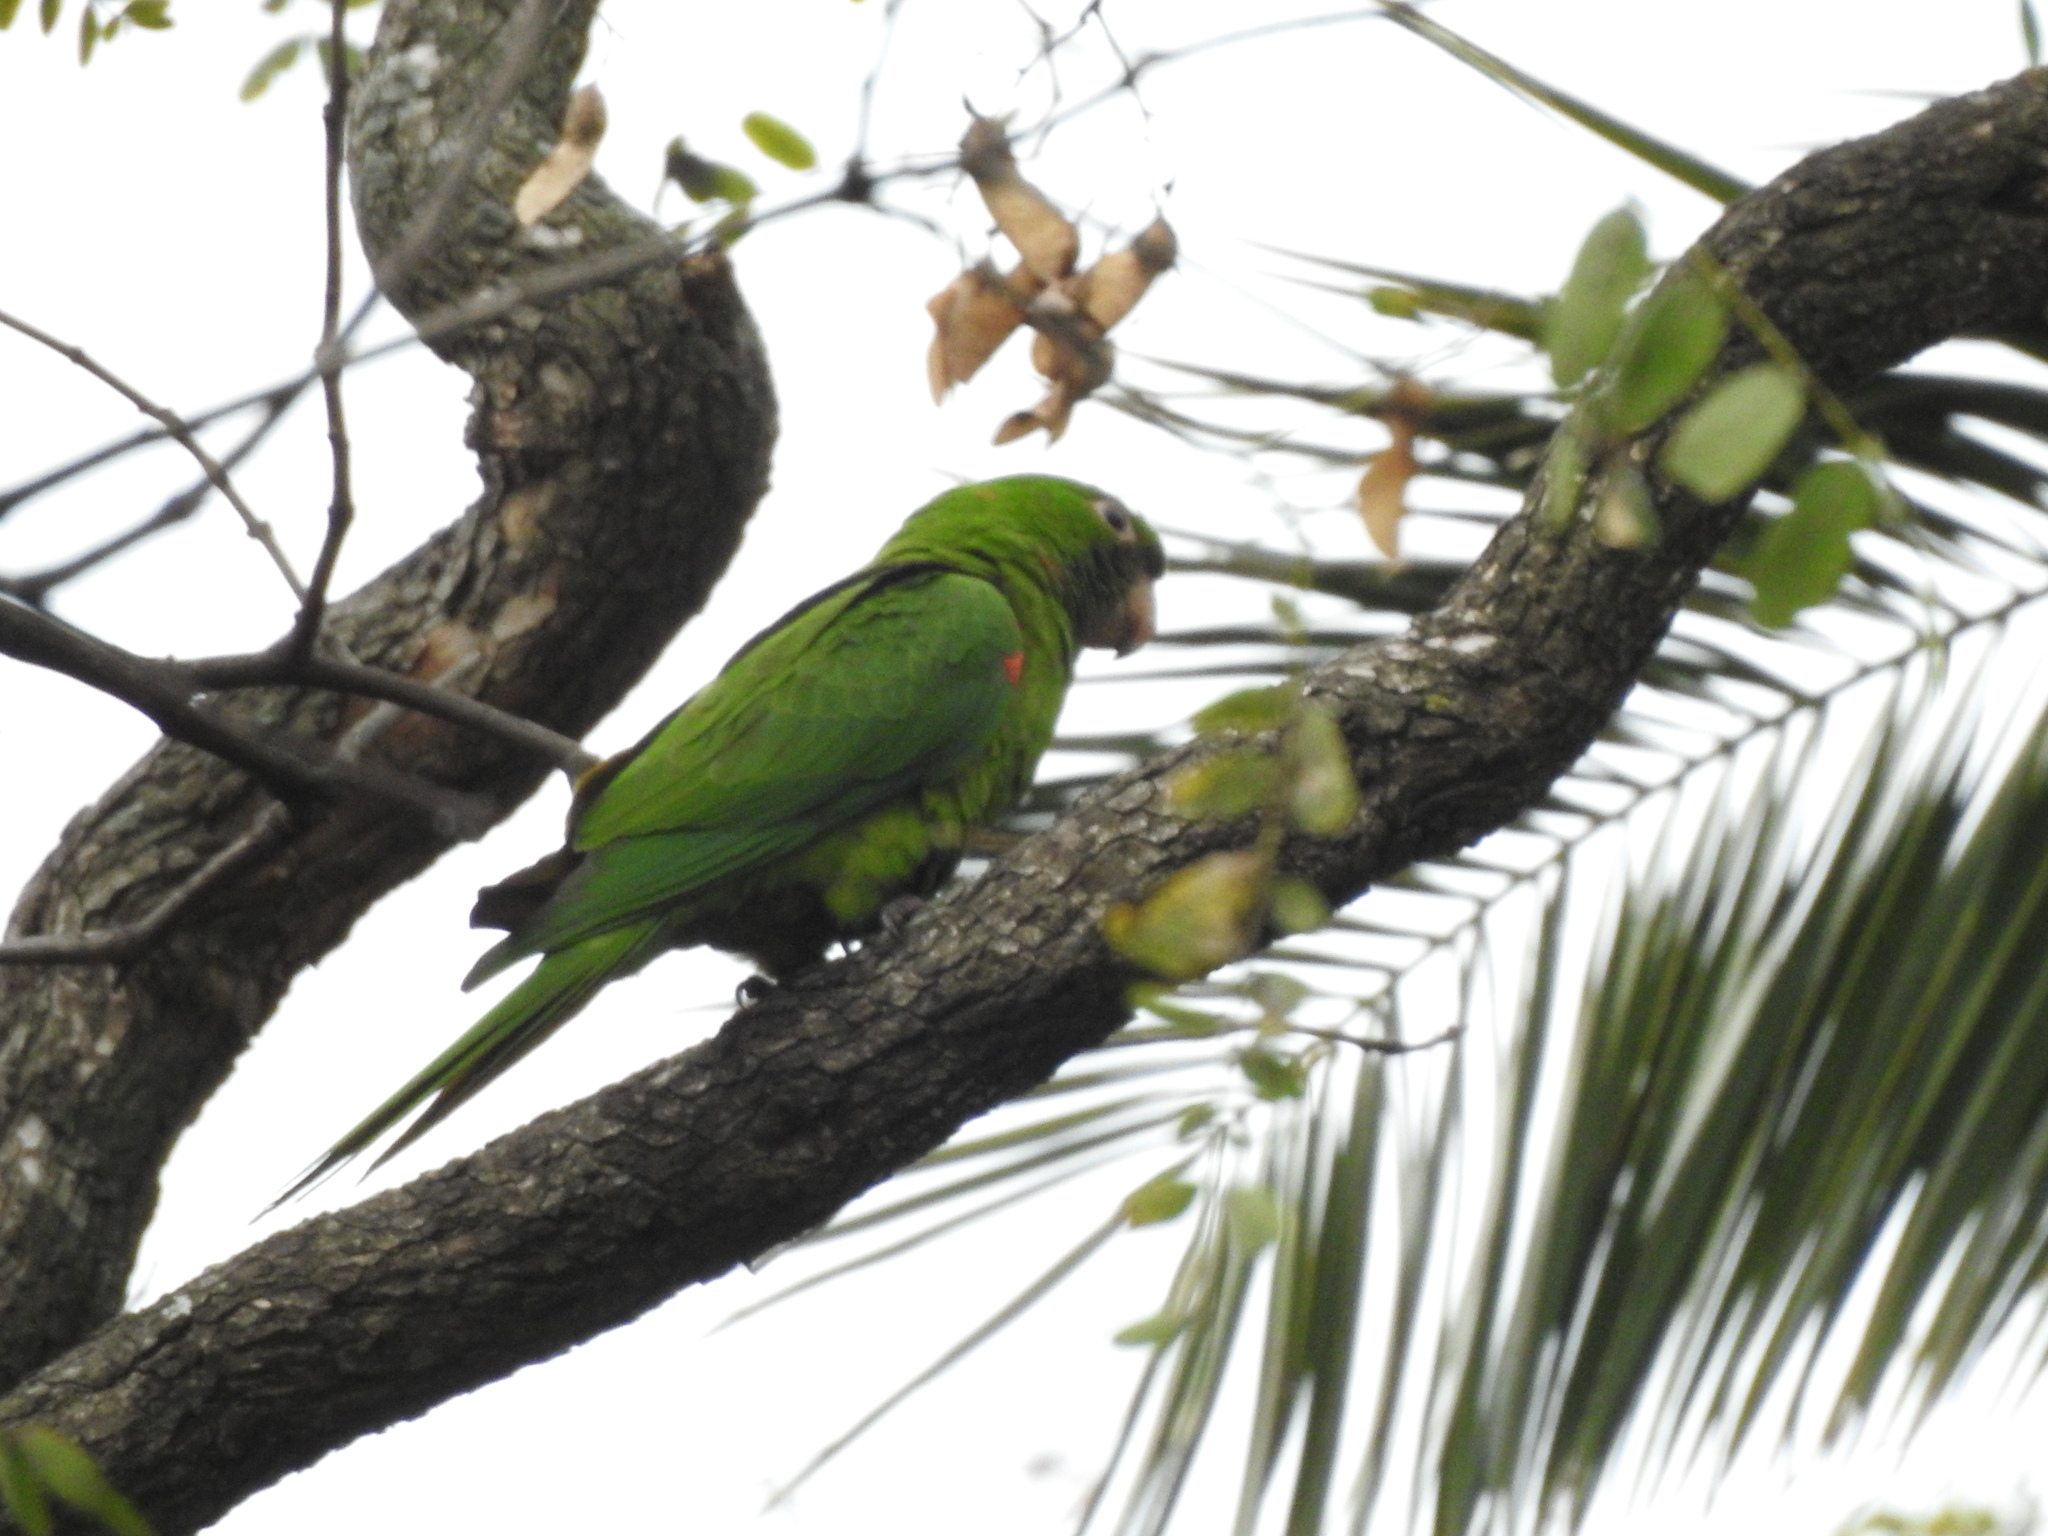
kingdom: Animalia
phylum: Chordata
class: Aves
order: Psittaciformes
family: Psittacidae
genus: Aratinga
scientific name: Aratinga leucophthalma
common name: White-eyed parakeet
